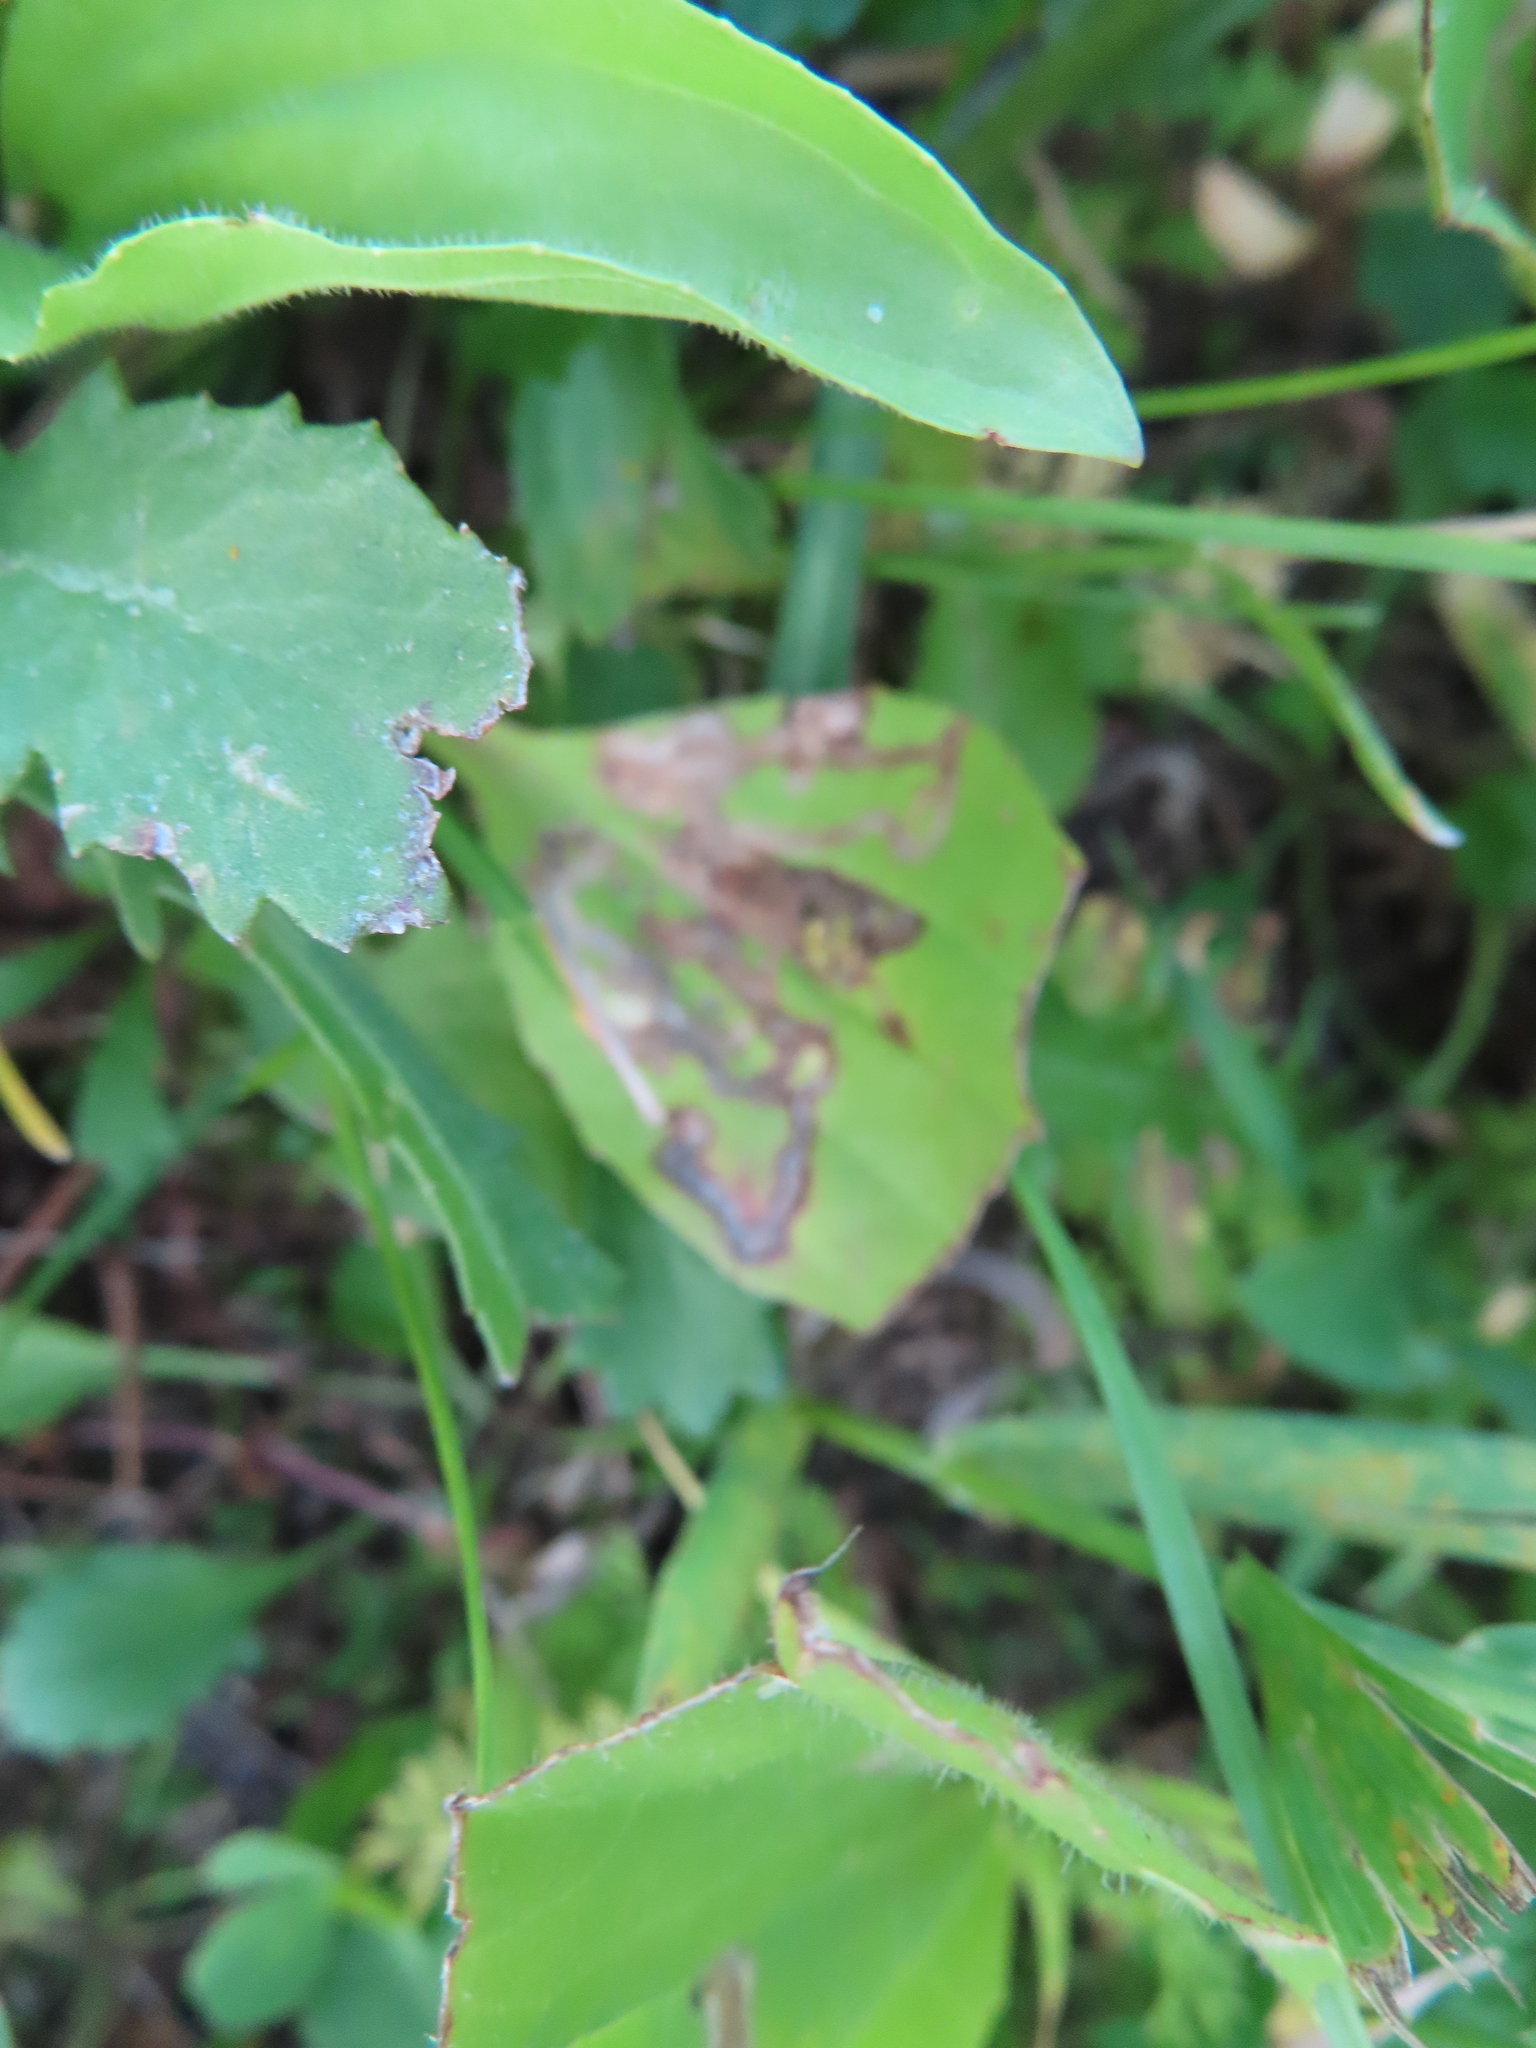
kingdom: Animalia
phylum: Arthropoda
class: Insecta
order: Coleoptera
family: Chrysomelidae
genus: Dibolia
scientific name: Dibolia borealis
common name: Northern plantain flea beetle
